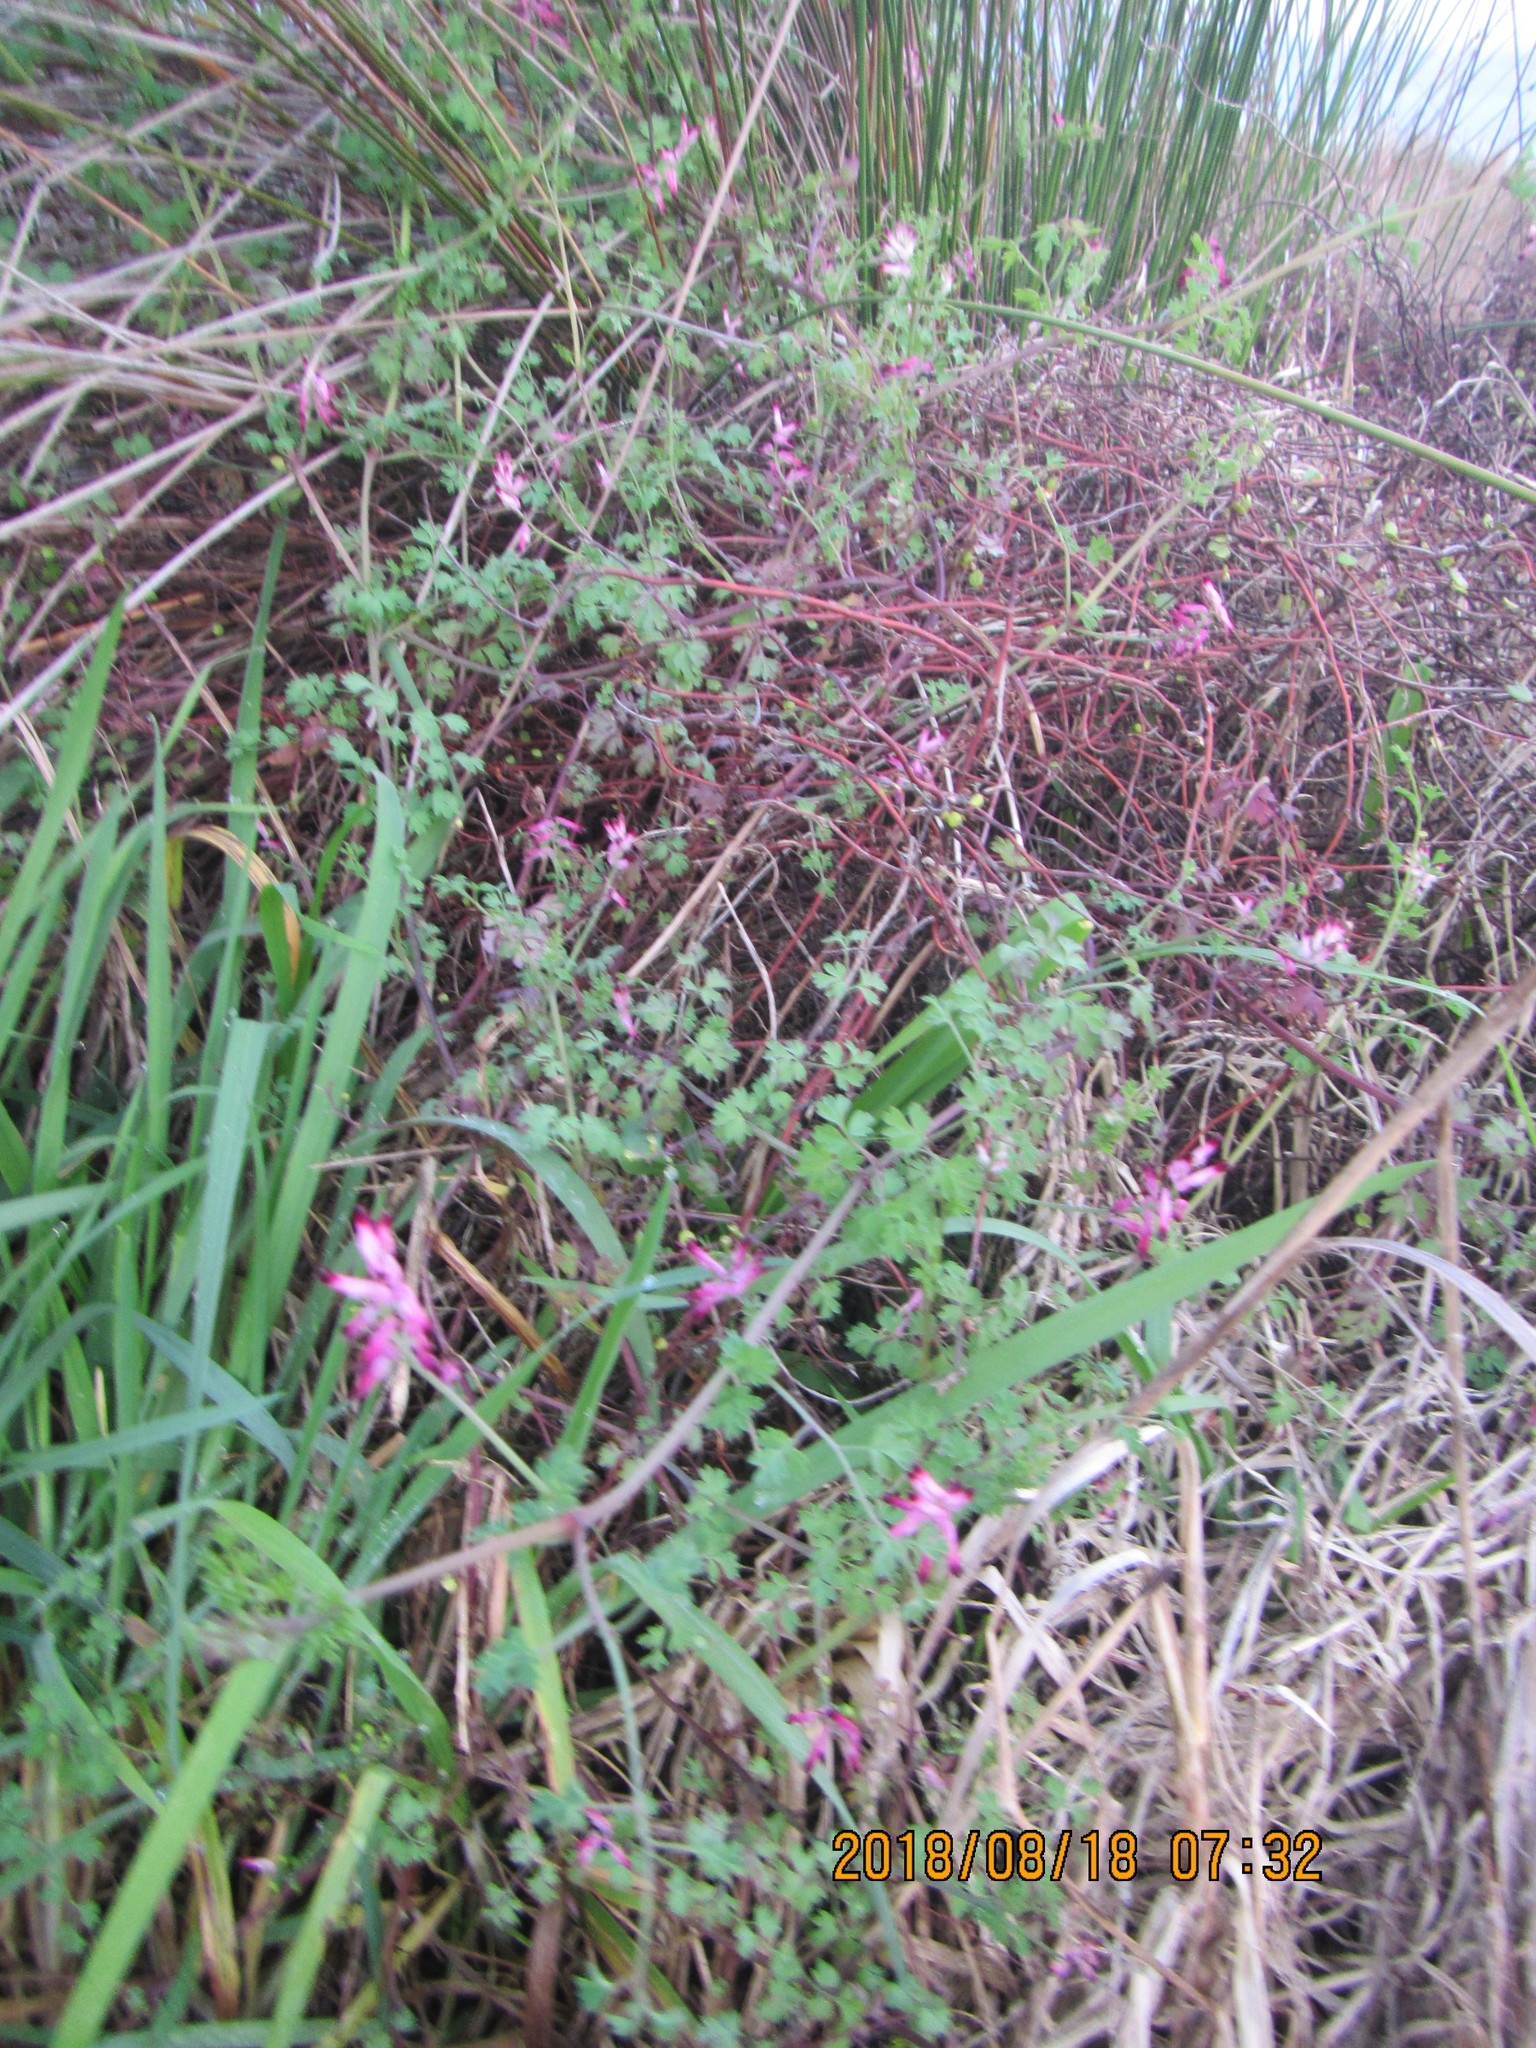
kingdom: Plantae
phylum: Tracheophyta
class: Magnoliopsida
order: Ranunculales
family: Papaveraceae
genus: Fumaria
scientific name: Fumaria muralis
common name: Common ramping-fumitory
